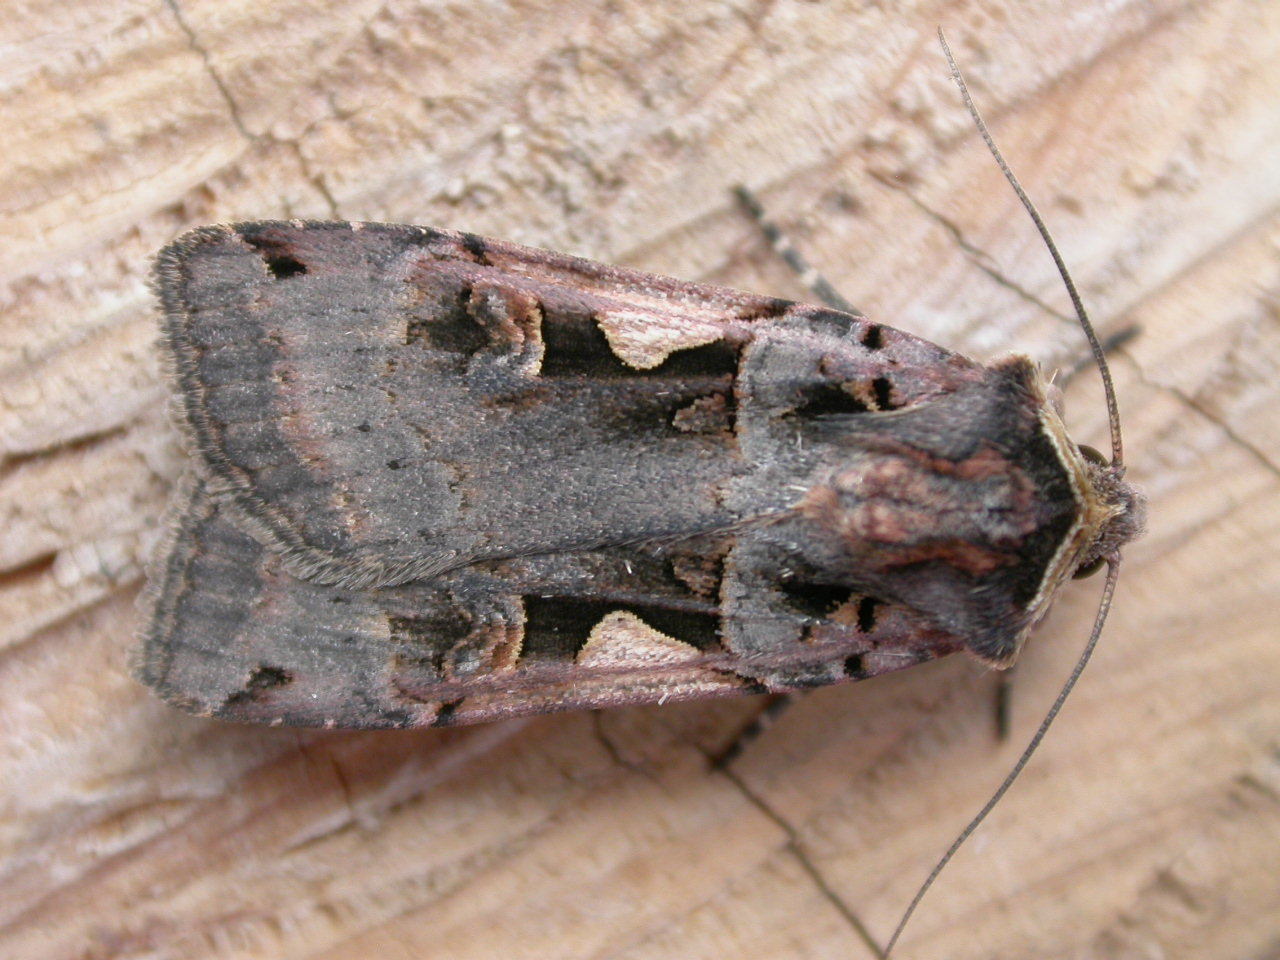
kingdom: Animalia
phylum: Arthropoda
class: Insecta
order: Lepidoptera
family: Noctuidae
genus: Xestia
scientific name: Xestia c-nigrum
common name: Setaceous hebrew character
